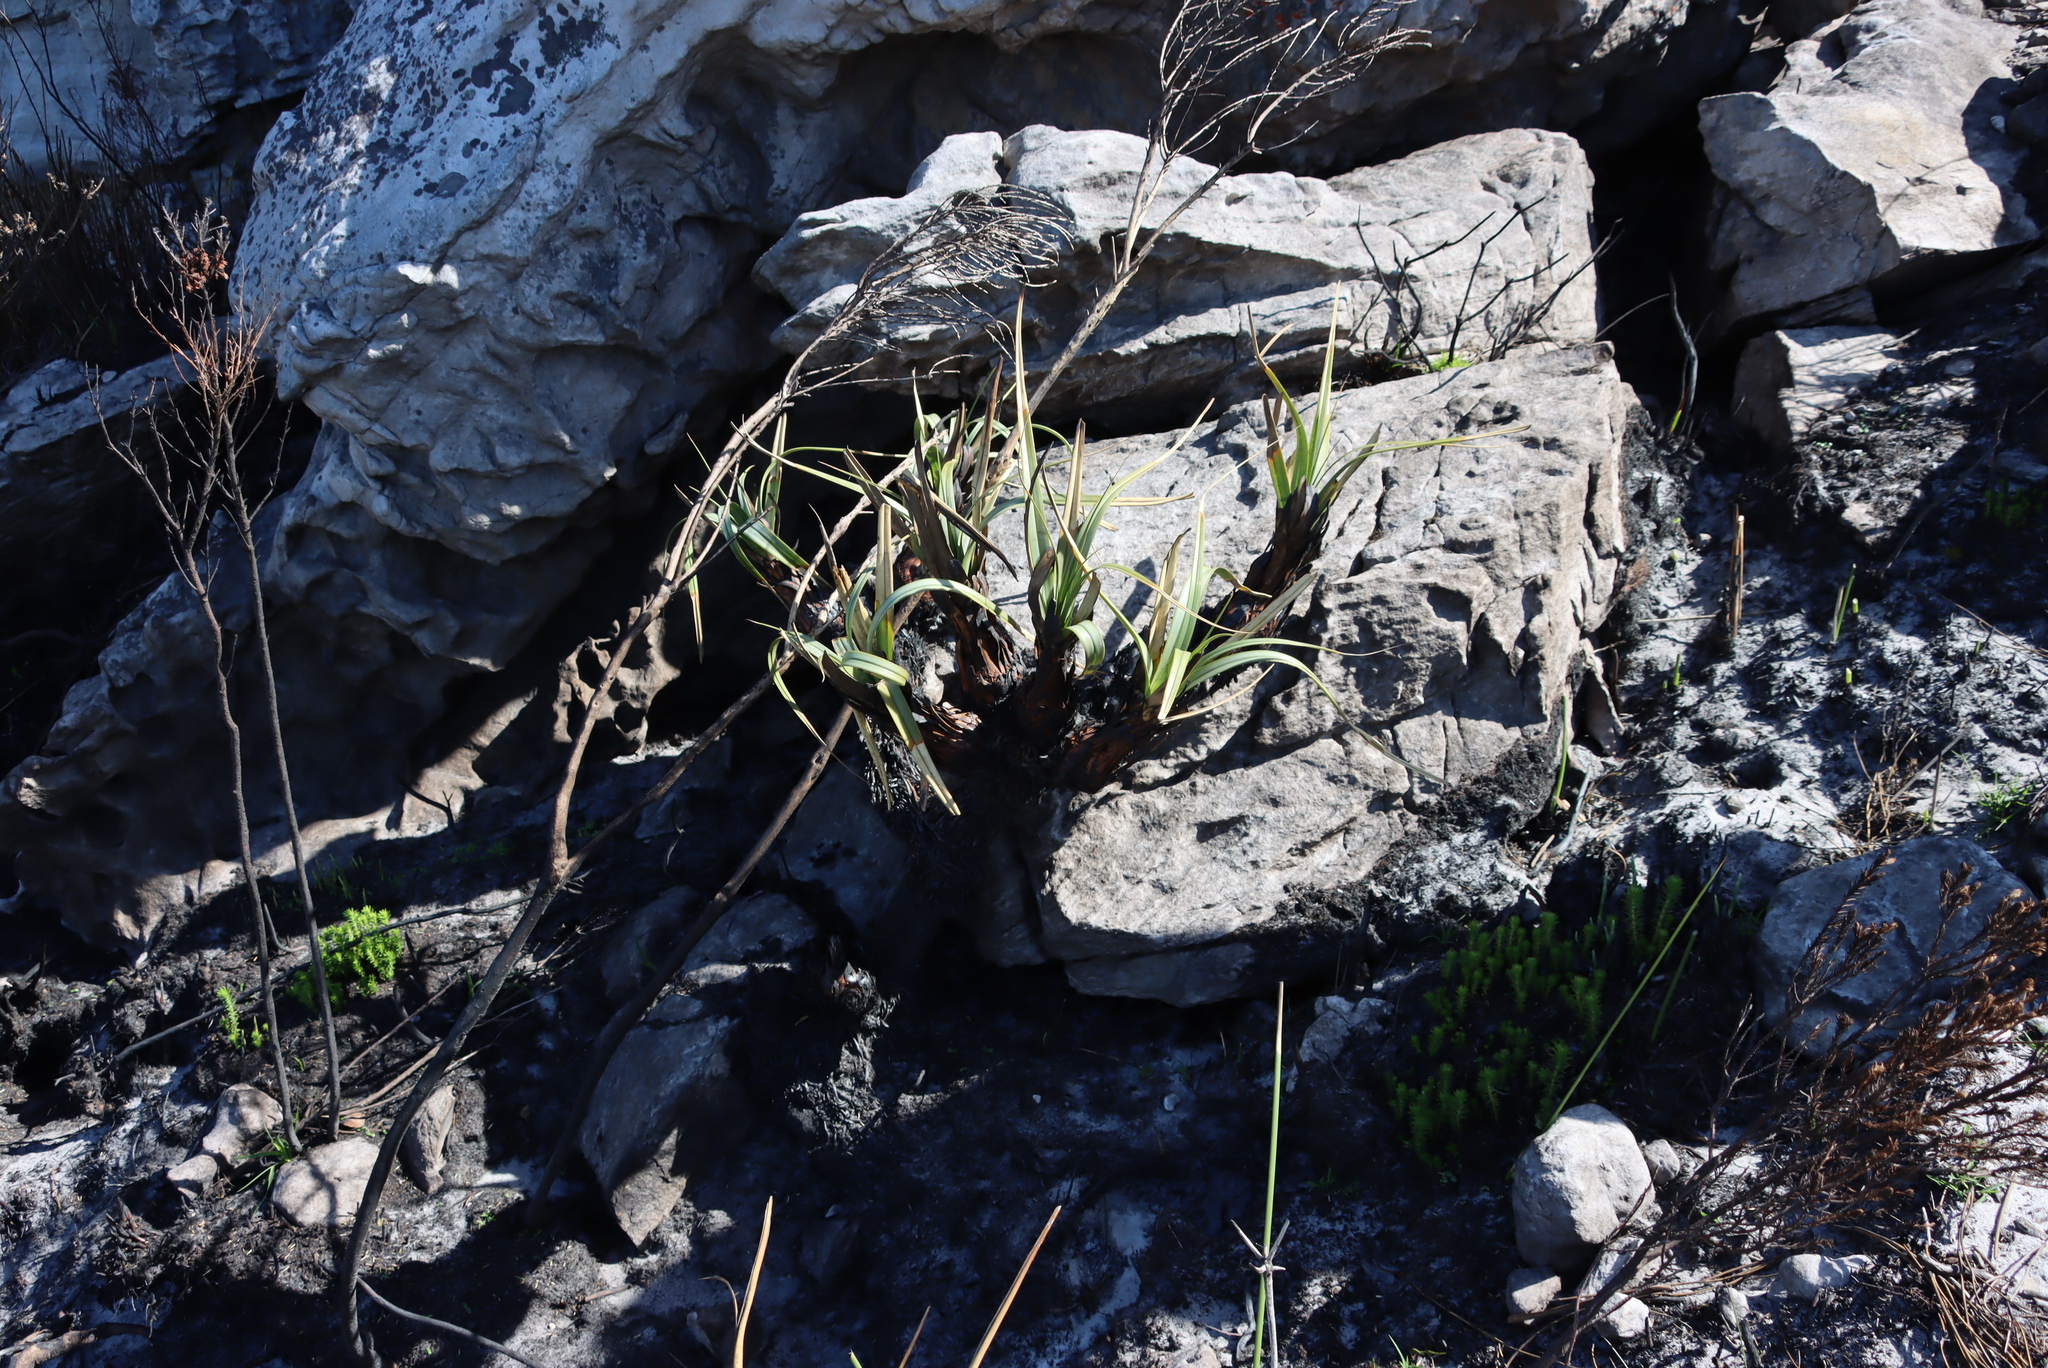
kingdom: Plantae
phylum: Tracheophyta
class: Liliopsida
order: Poales
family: Cyperaceae
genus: Tetraria
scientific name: Tetraria thermalis
